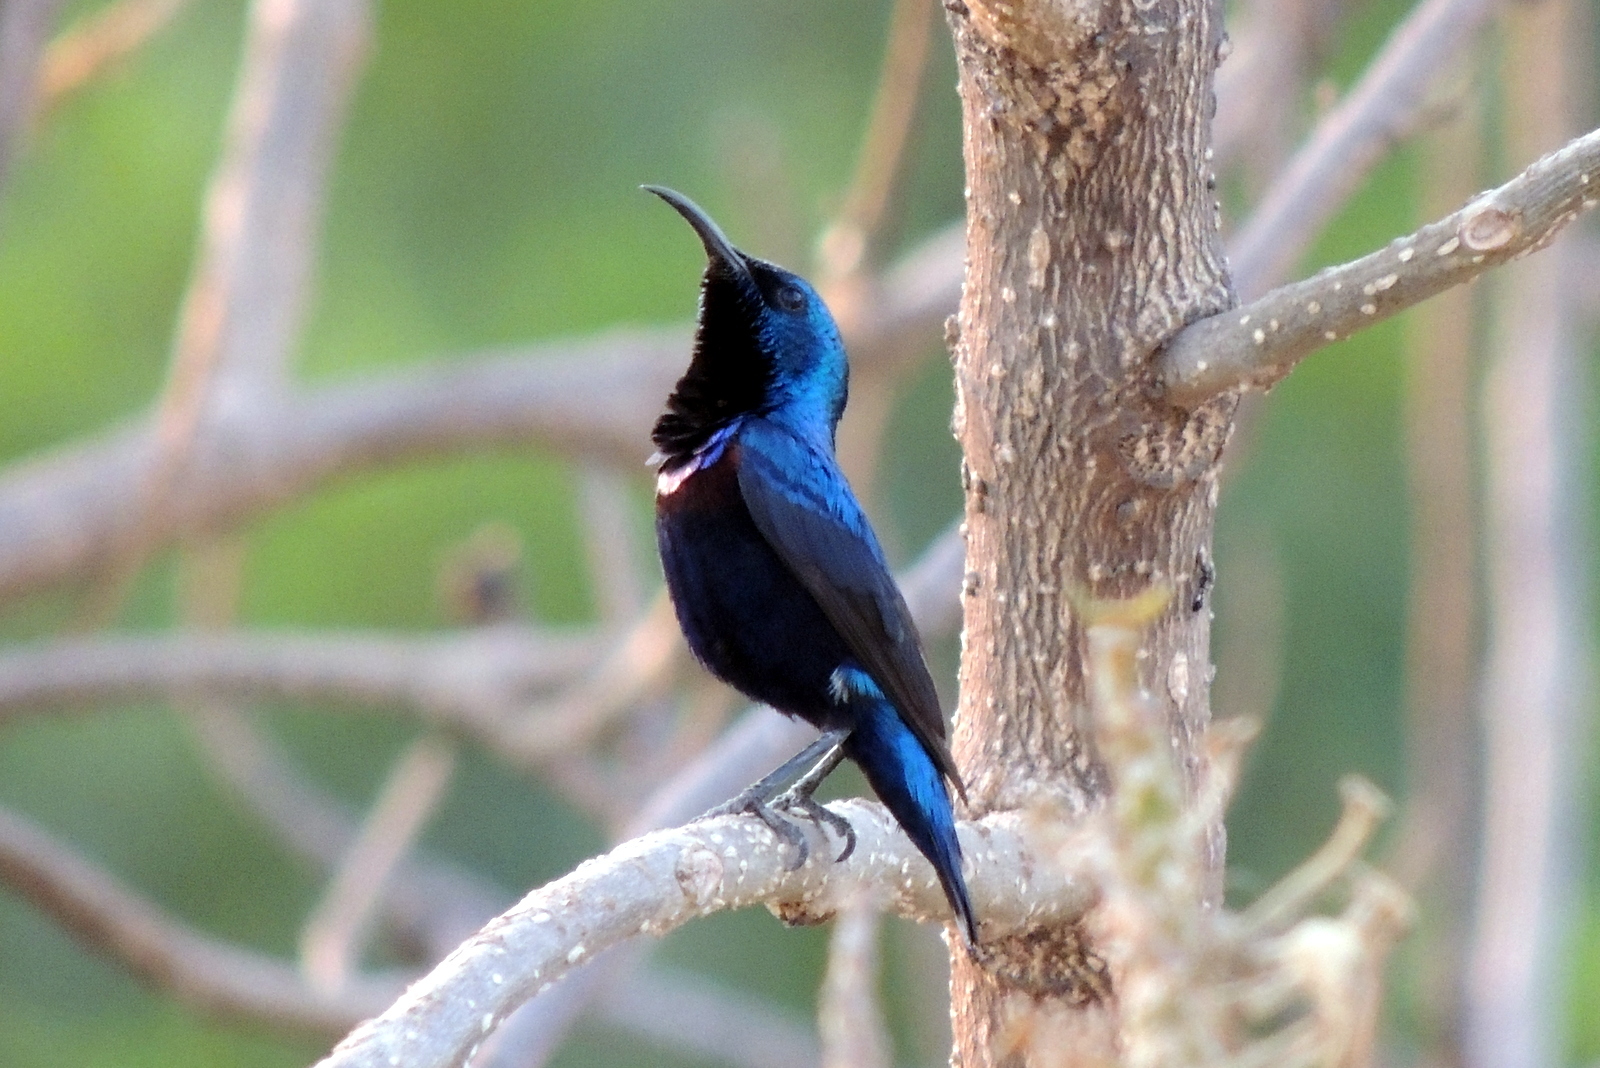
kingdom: Animalia
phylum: Chordata
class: Aves
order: Passeriformes
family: Nectariniidae
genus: Cinnyris
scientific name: Cinnyris asiaticus
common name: Purple sunbird
